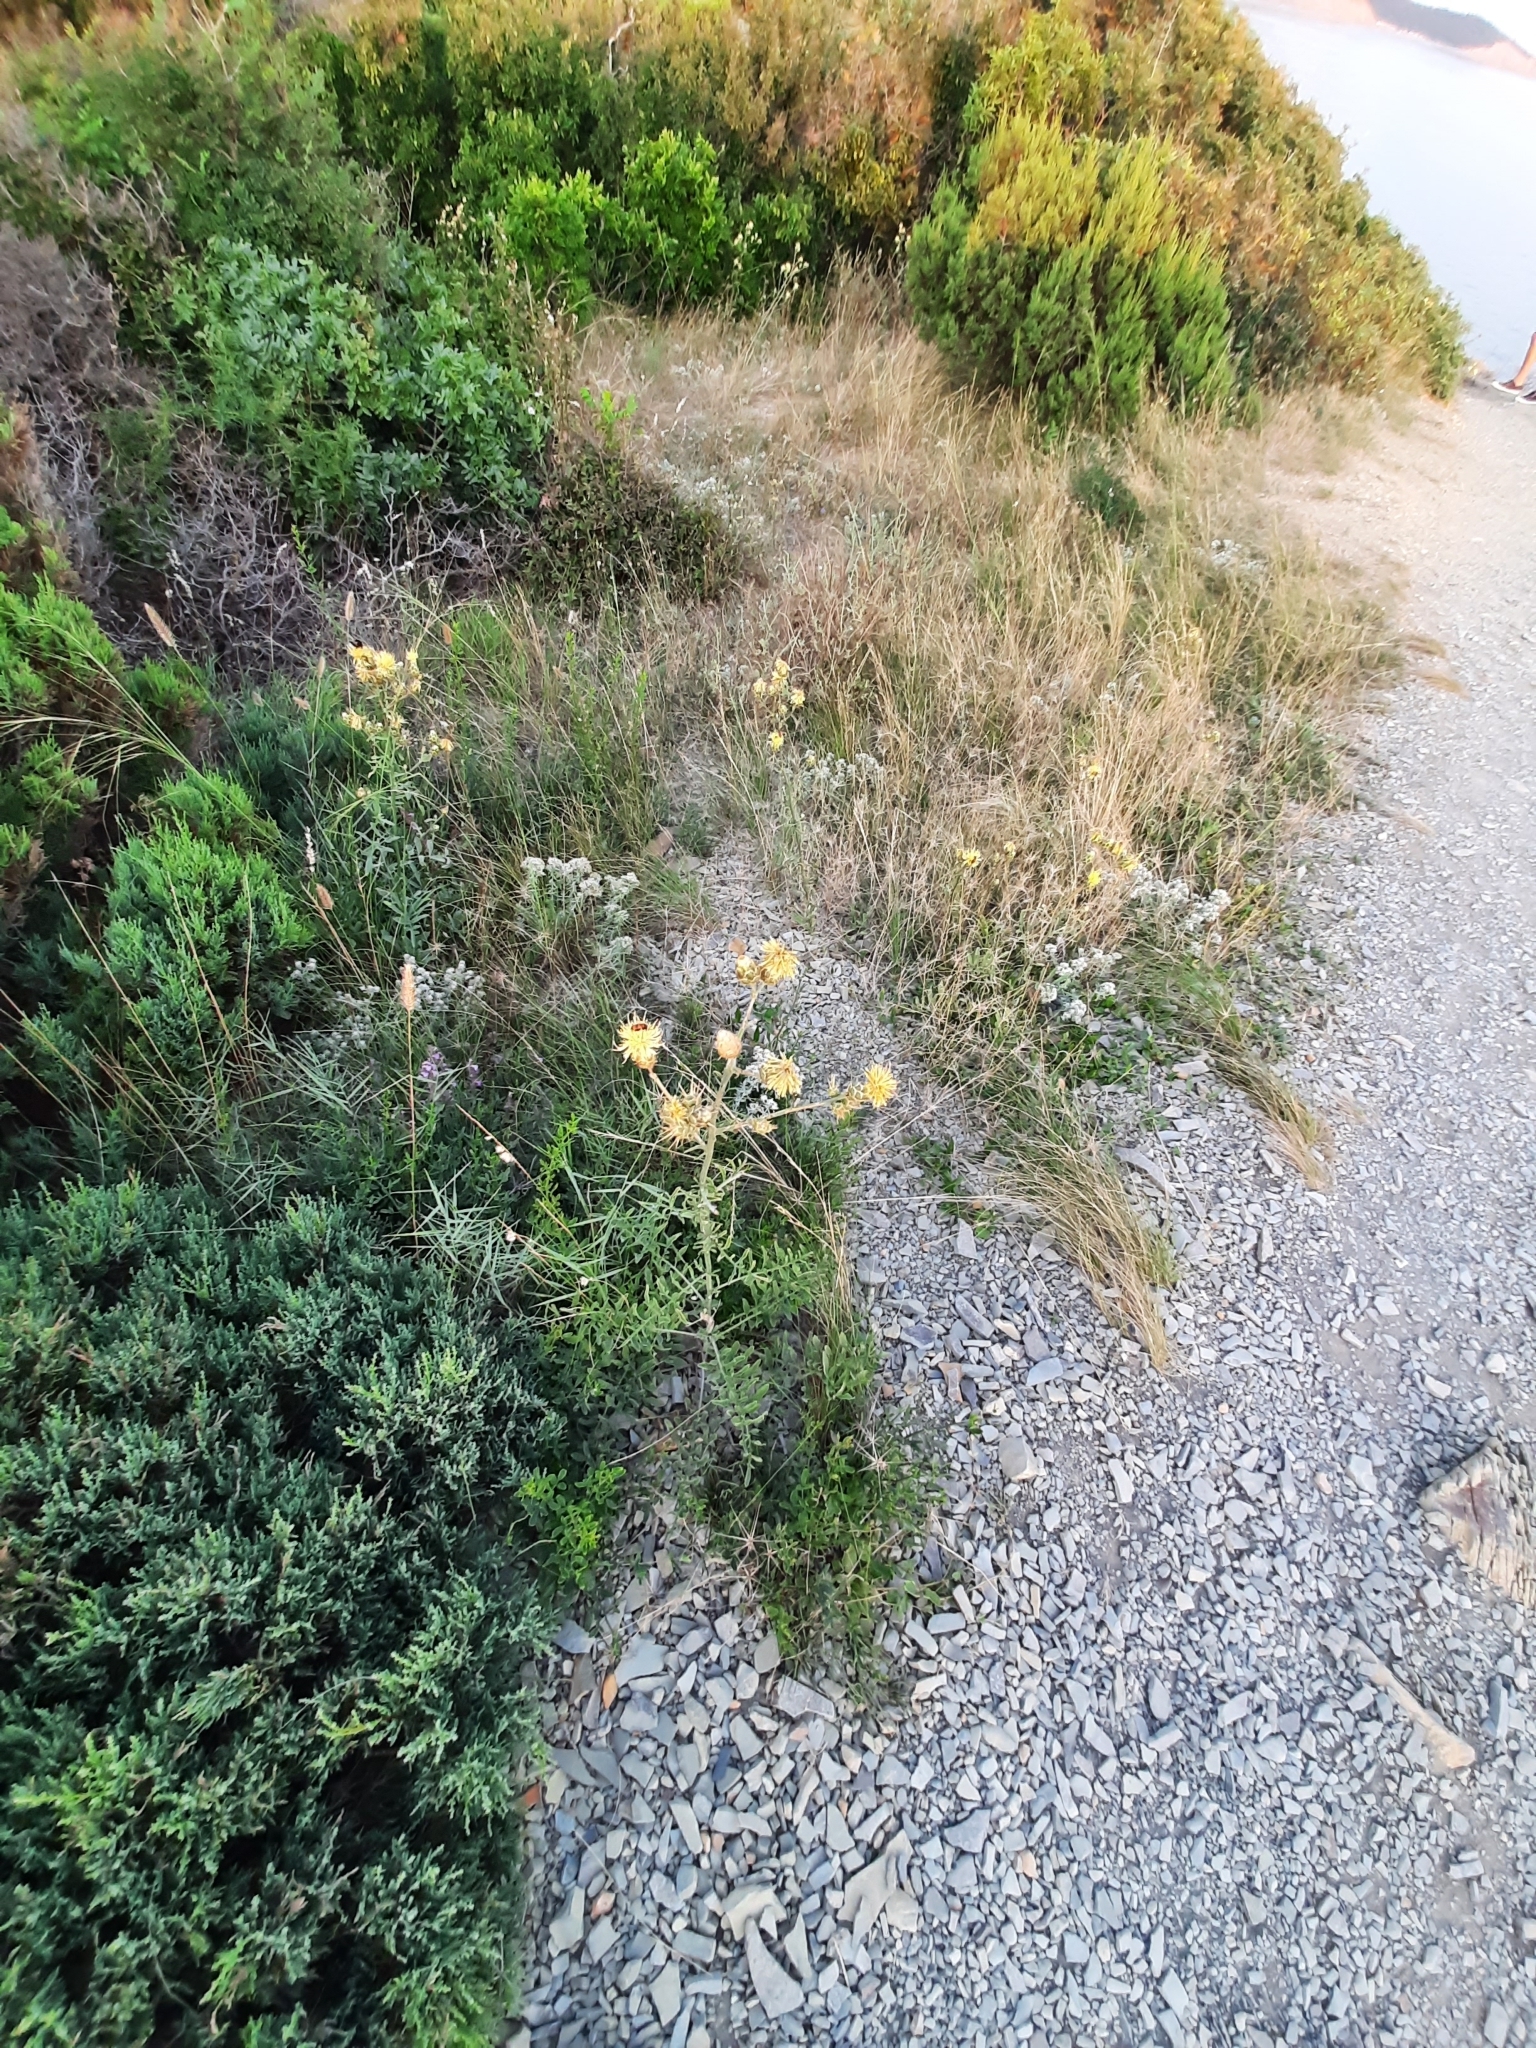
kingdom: Plantae
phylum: Tracheophyta
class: Magnoliopsida
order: Asterales
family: Asteraceae
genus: Centaurea
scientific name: Centaurea salonitana
